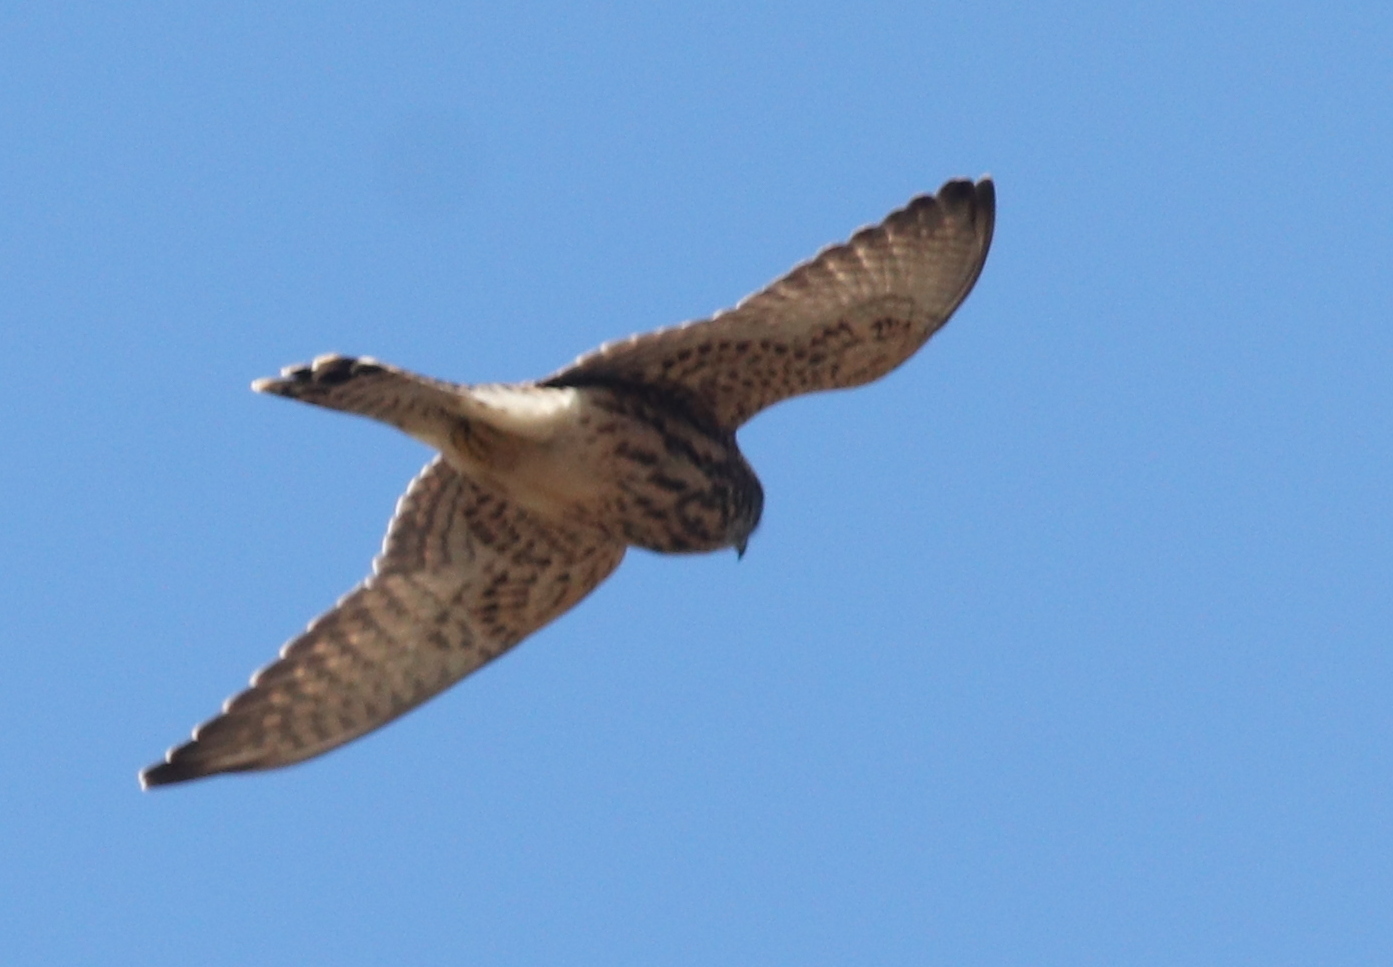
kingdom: Animalia
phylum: Chordata
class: Aves
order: Falconiformes
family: Falconidae
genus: Falco
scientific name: Falco tinnunculus
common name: Common kestrel
